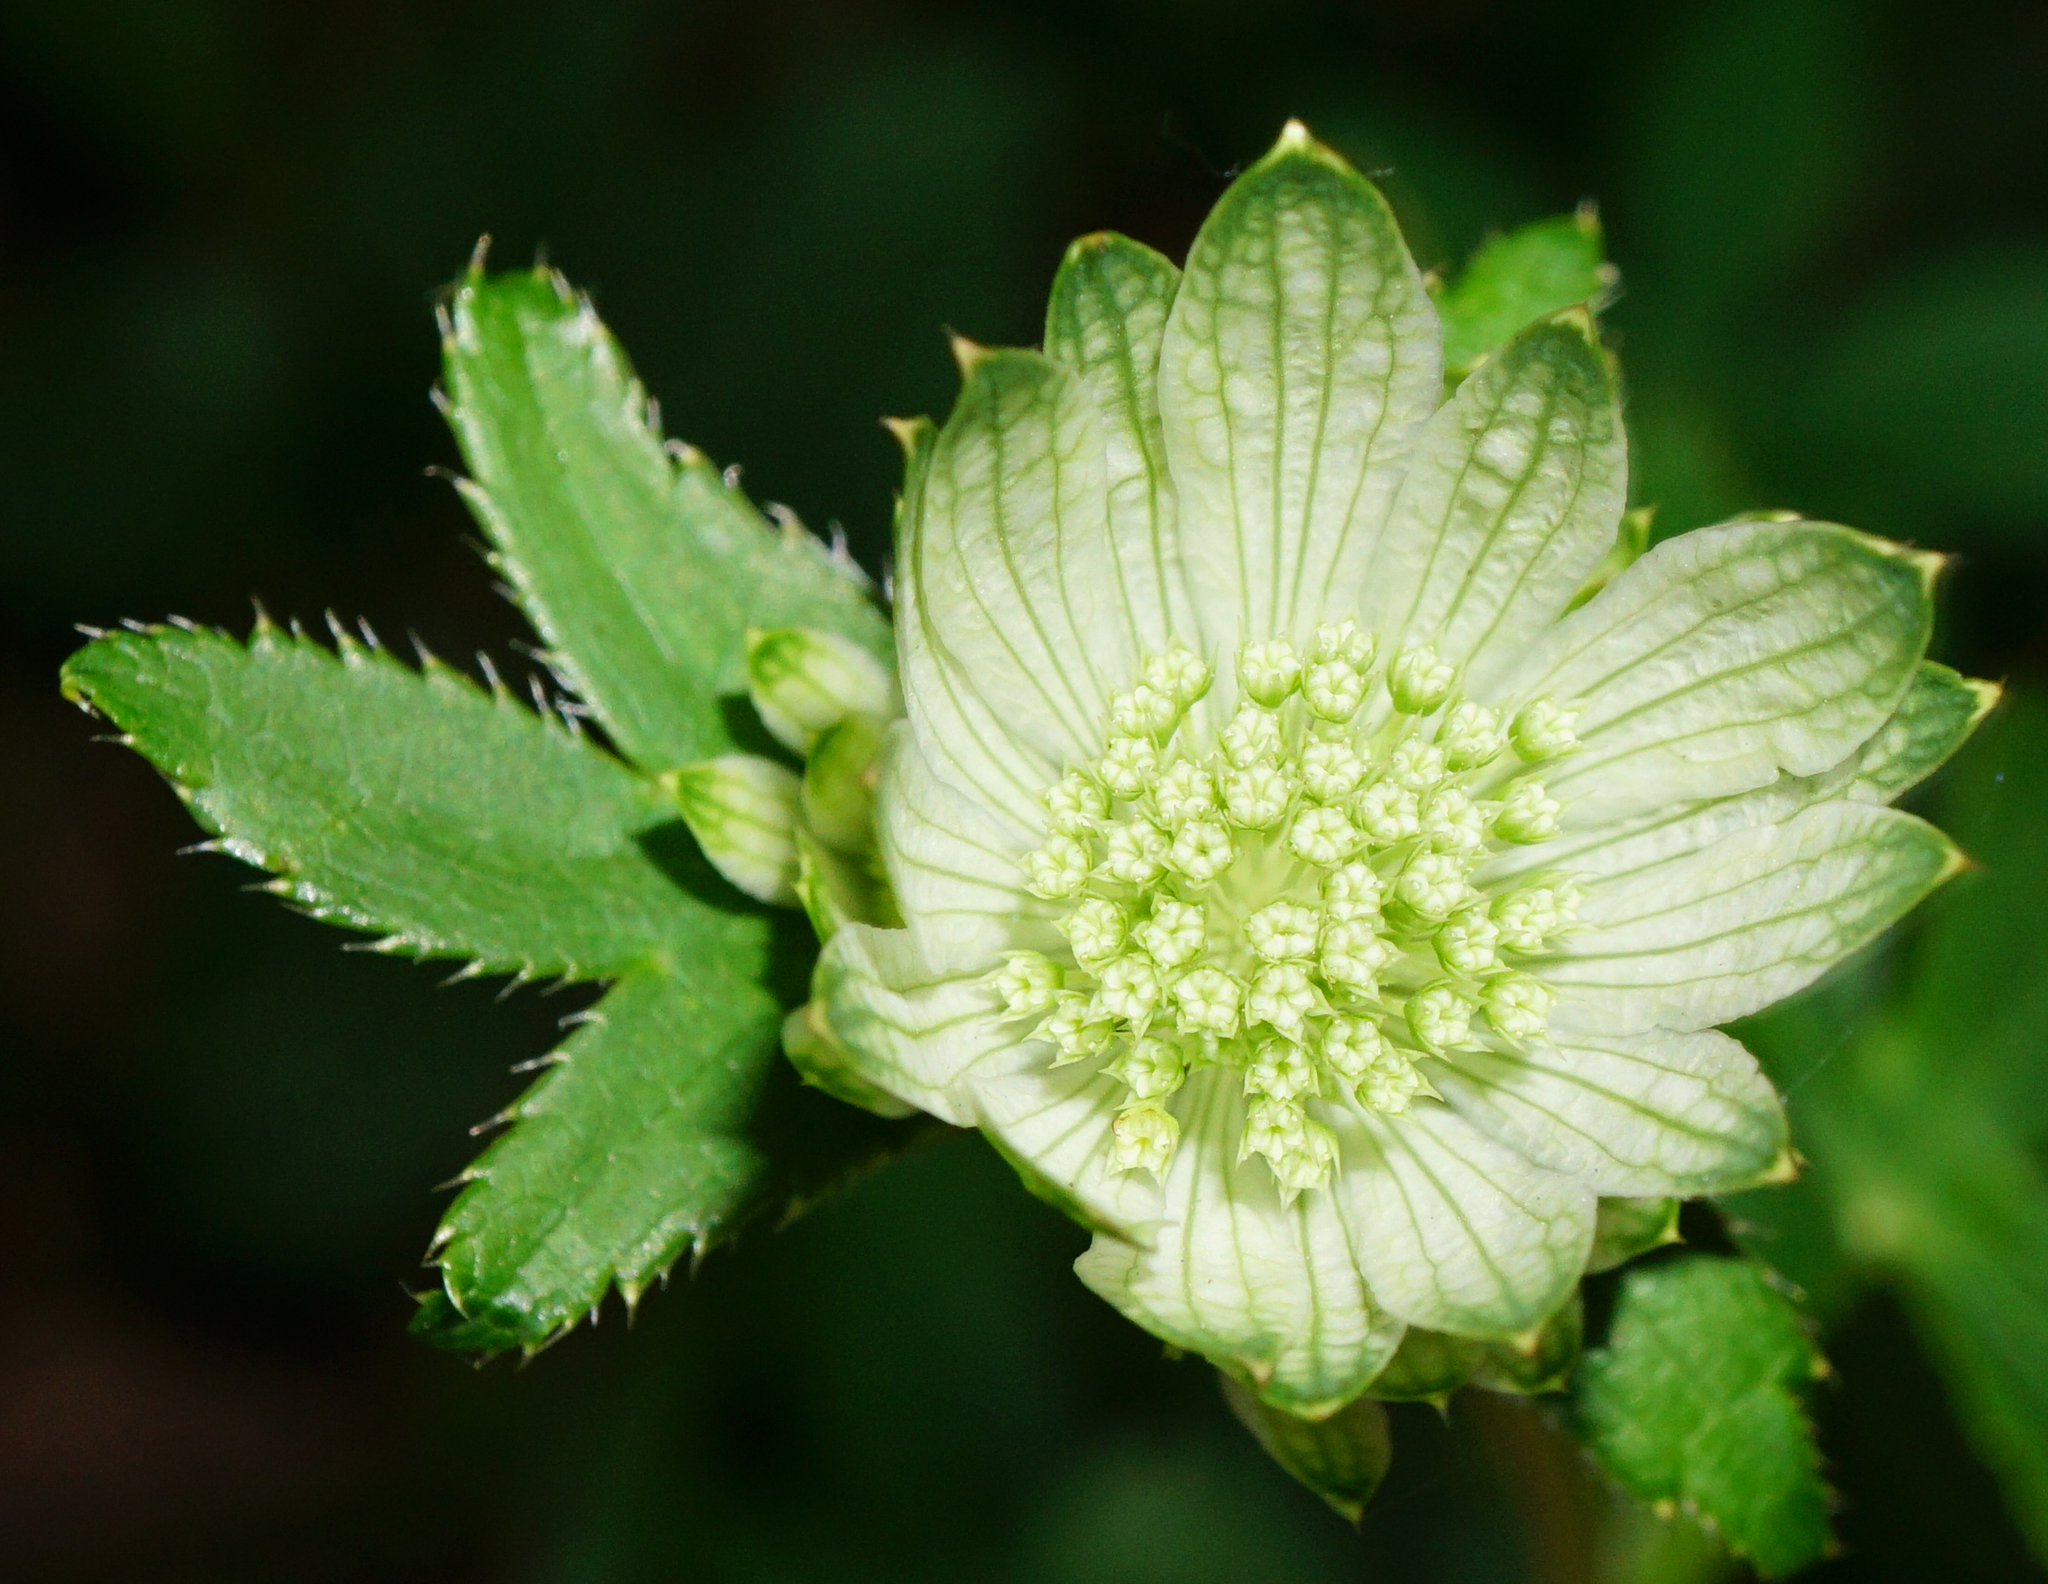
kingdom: Plantae
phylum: Tracheophyta
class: Magnoliopsida
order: Apiales
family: Apiaceae
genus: Astrantia
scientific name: Astrantia major
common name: Greater masterwort
